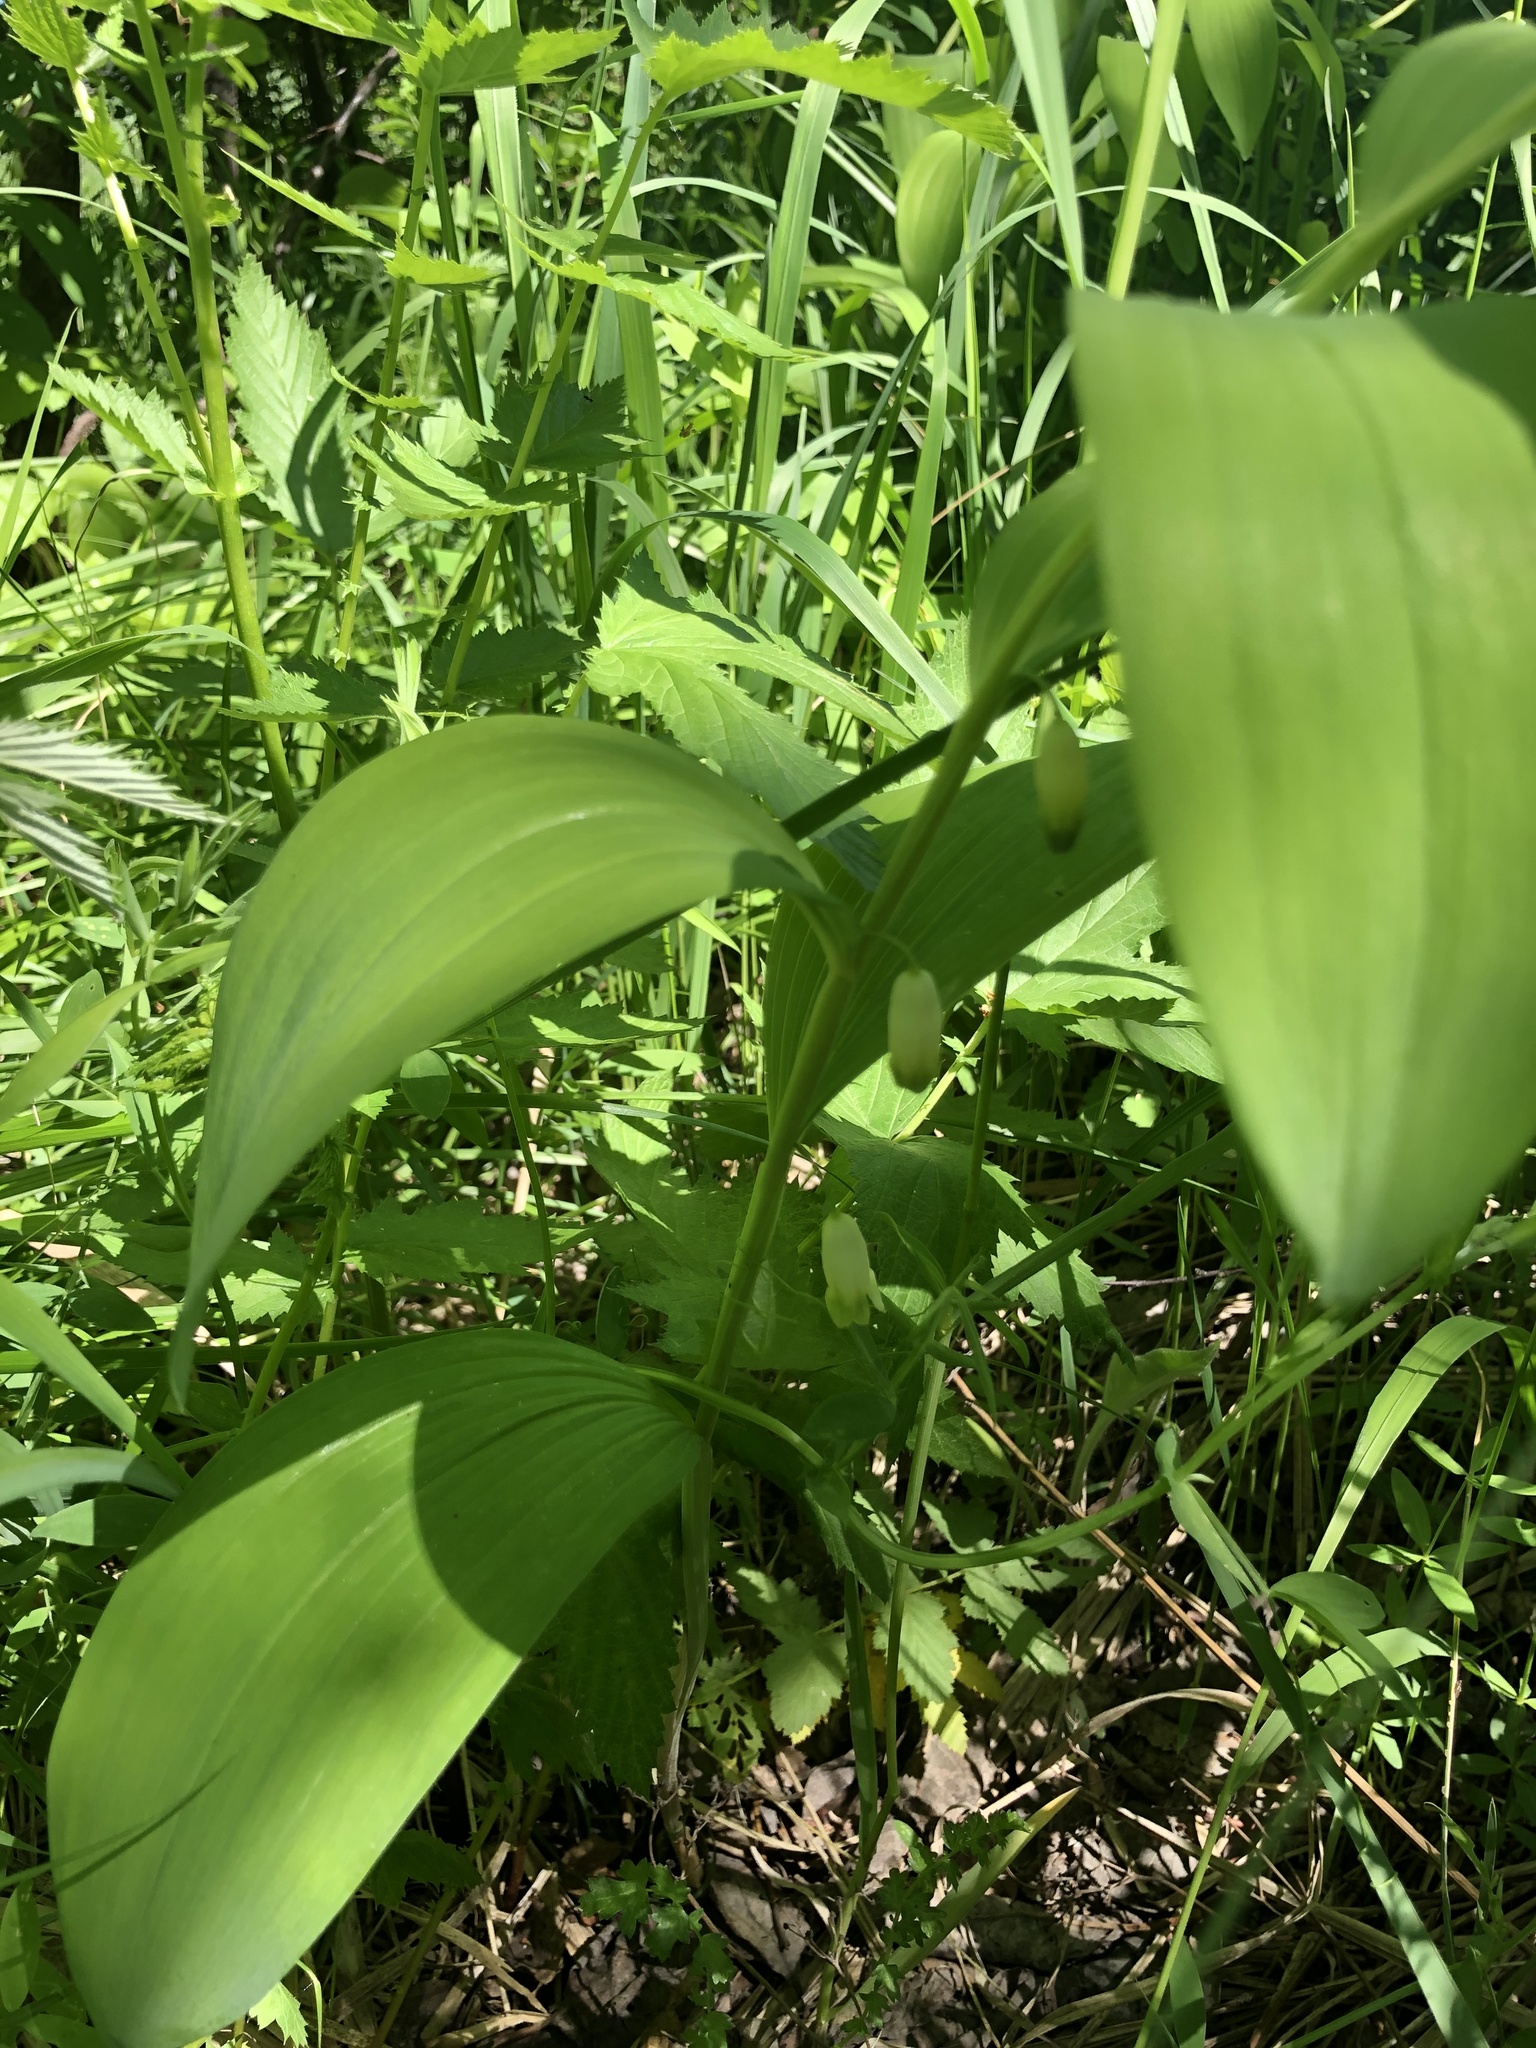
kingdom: Plantae
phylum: Tracheophyta
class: Liliopsida
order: Asparagales
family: Asparagaceae
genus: Polygonatum
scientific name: Polygonatum odoratum
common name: Angular solomon's-seal
